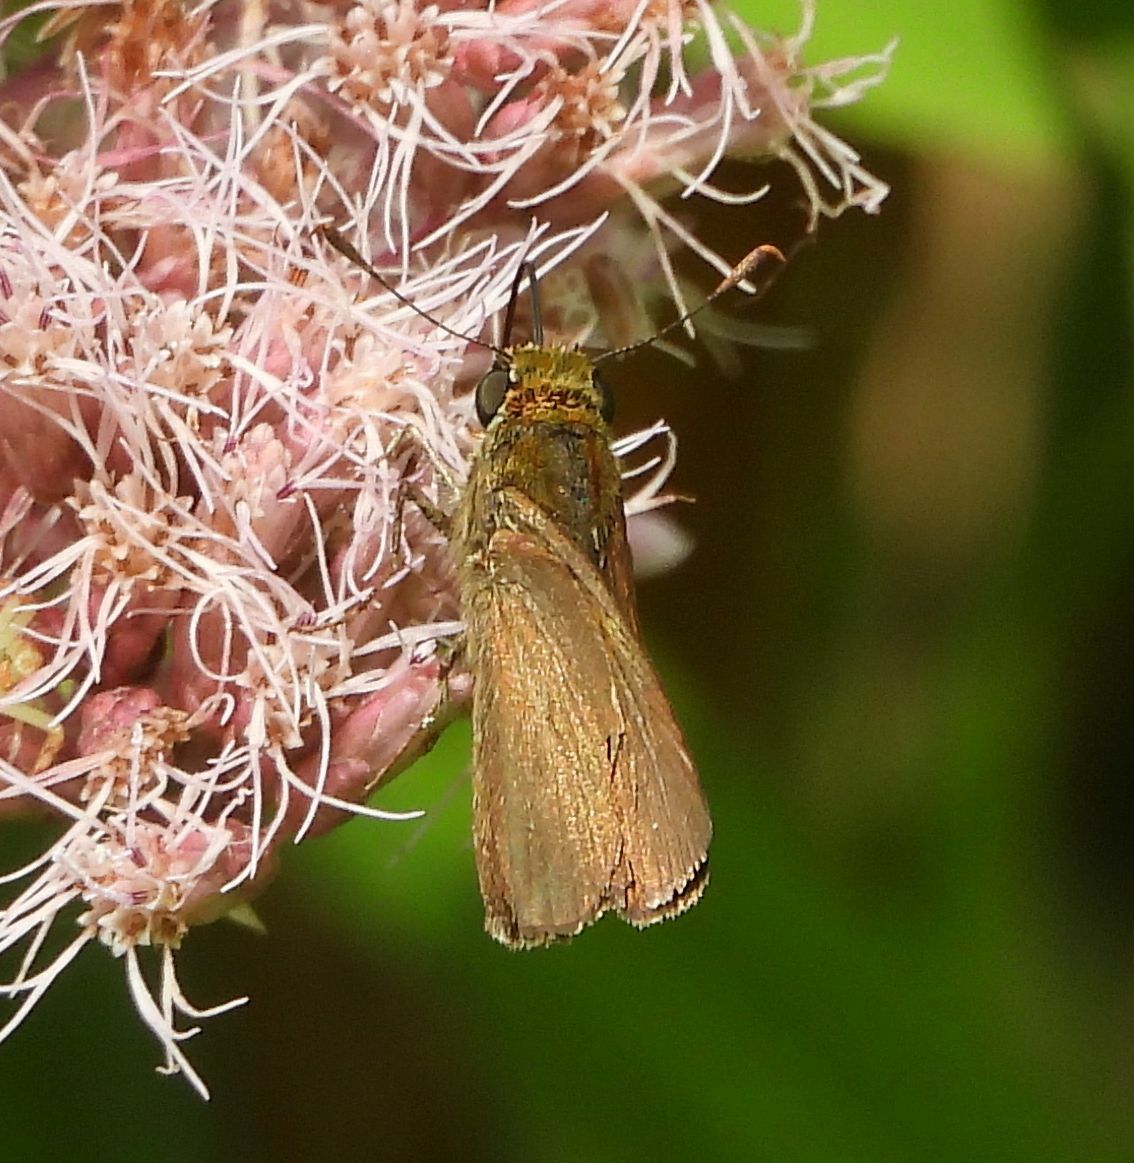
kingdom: Animalia
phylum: Arthropoda
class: Insecta
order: Lepidoptera
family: Hesperiidae
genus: Euphyes
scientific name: Euphyes vestris
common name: Dun skipper
